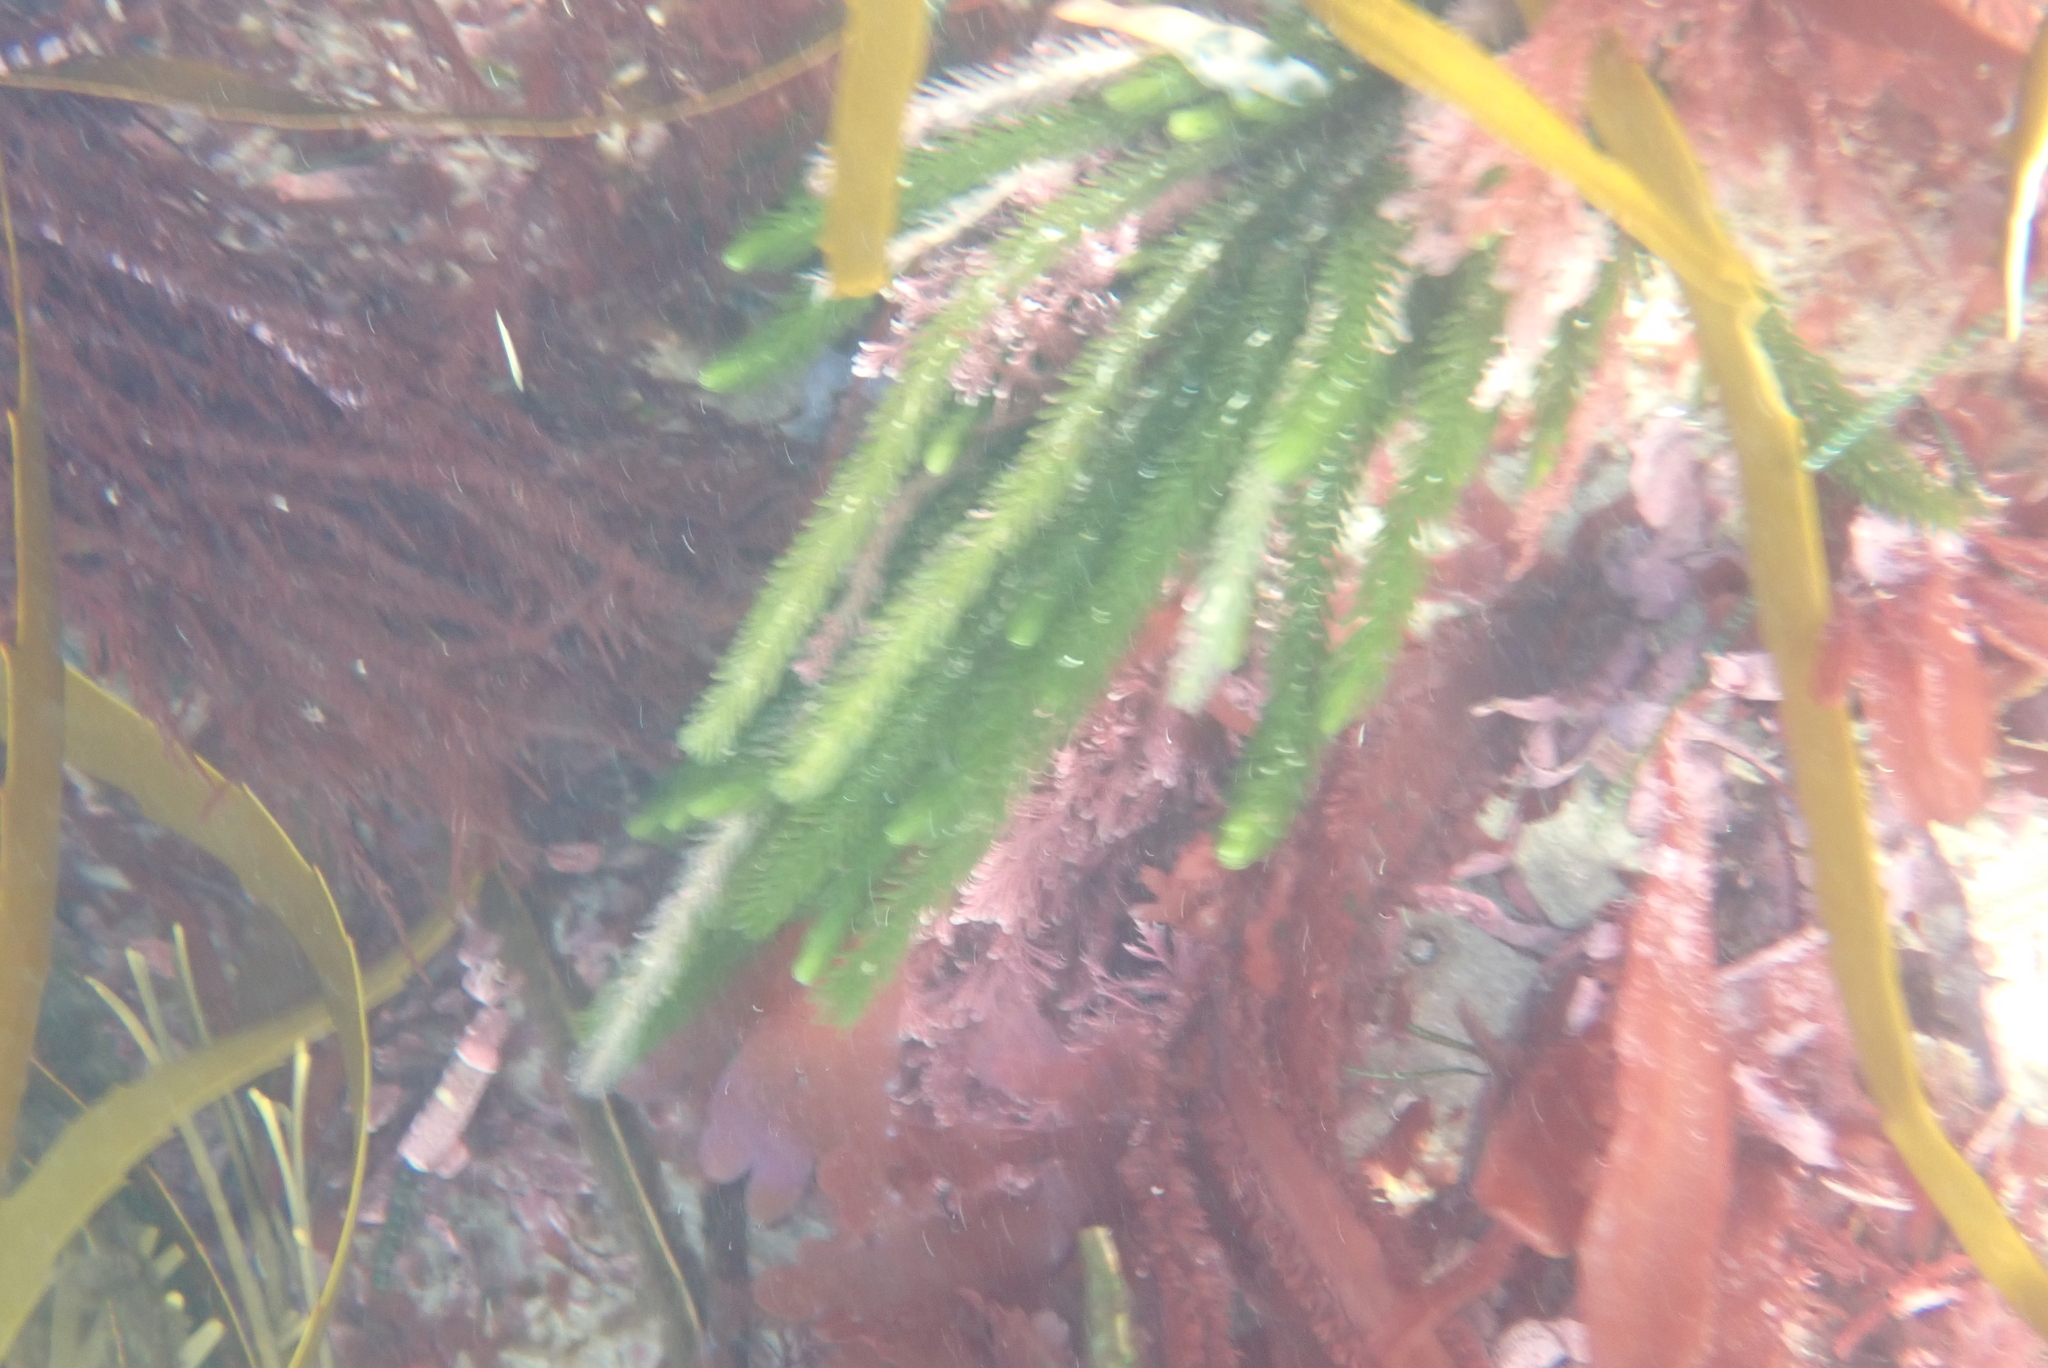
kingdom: Plantae
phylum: Chlorophyta
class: Ulvophyceae
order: Bryopsidales
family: Caulerpaceae
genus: Caulerpa
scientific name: Caulerpa brownii
